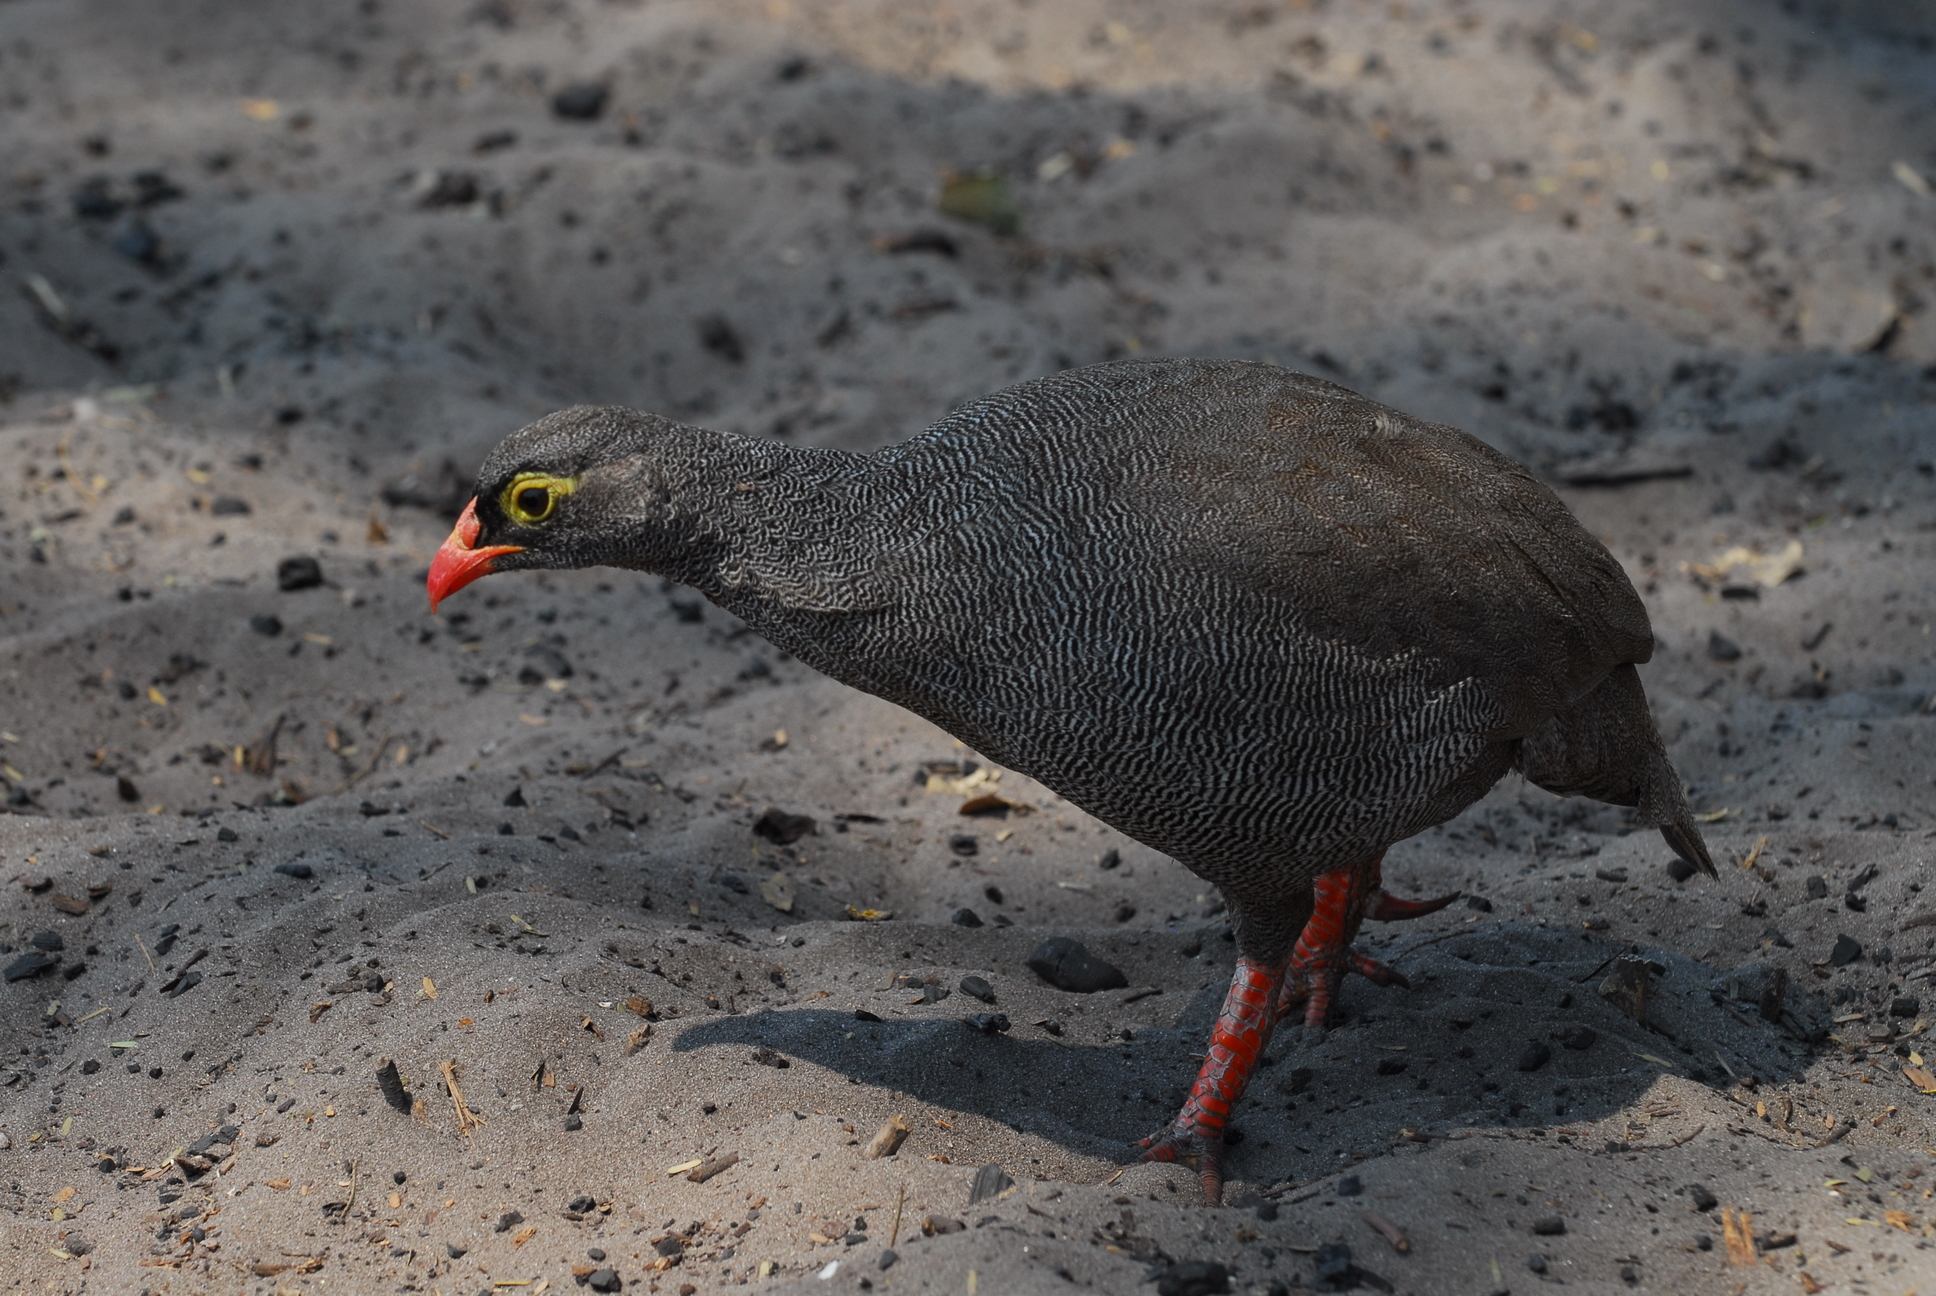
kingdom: Animalia
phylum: Chordata
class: Aves
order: Galliformes
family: Phasianidae
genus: Pternistis
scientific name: Pternistis adspersus
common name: Red-billed spurfowl
